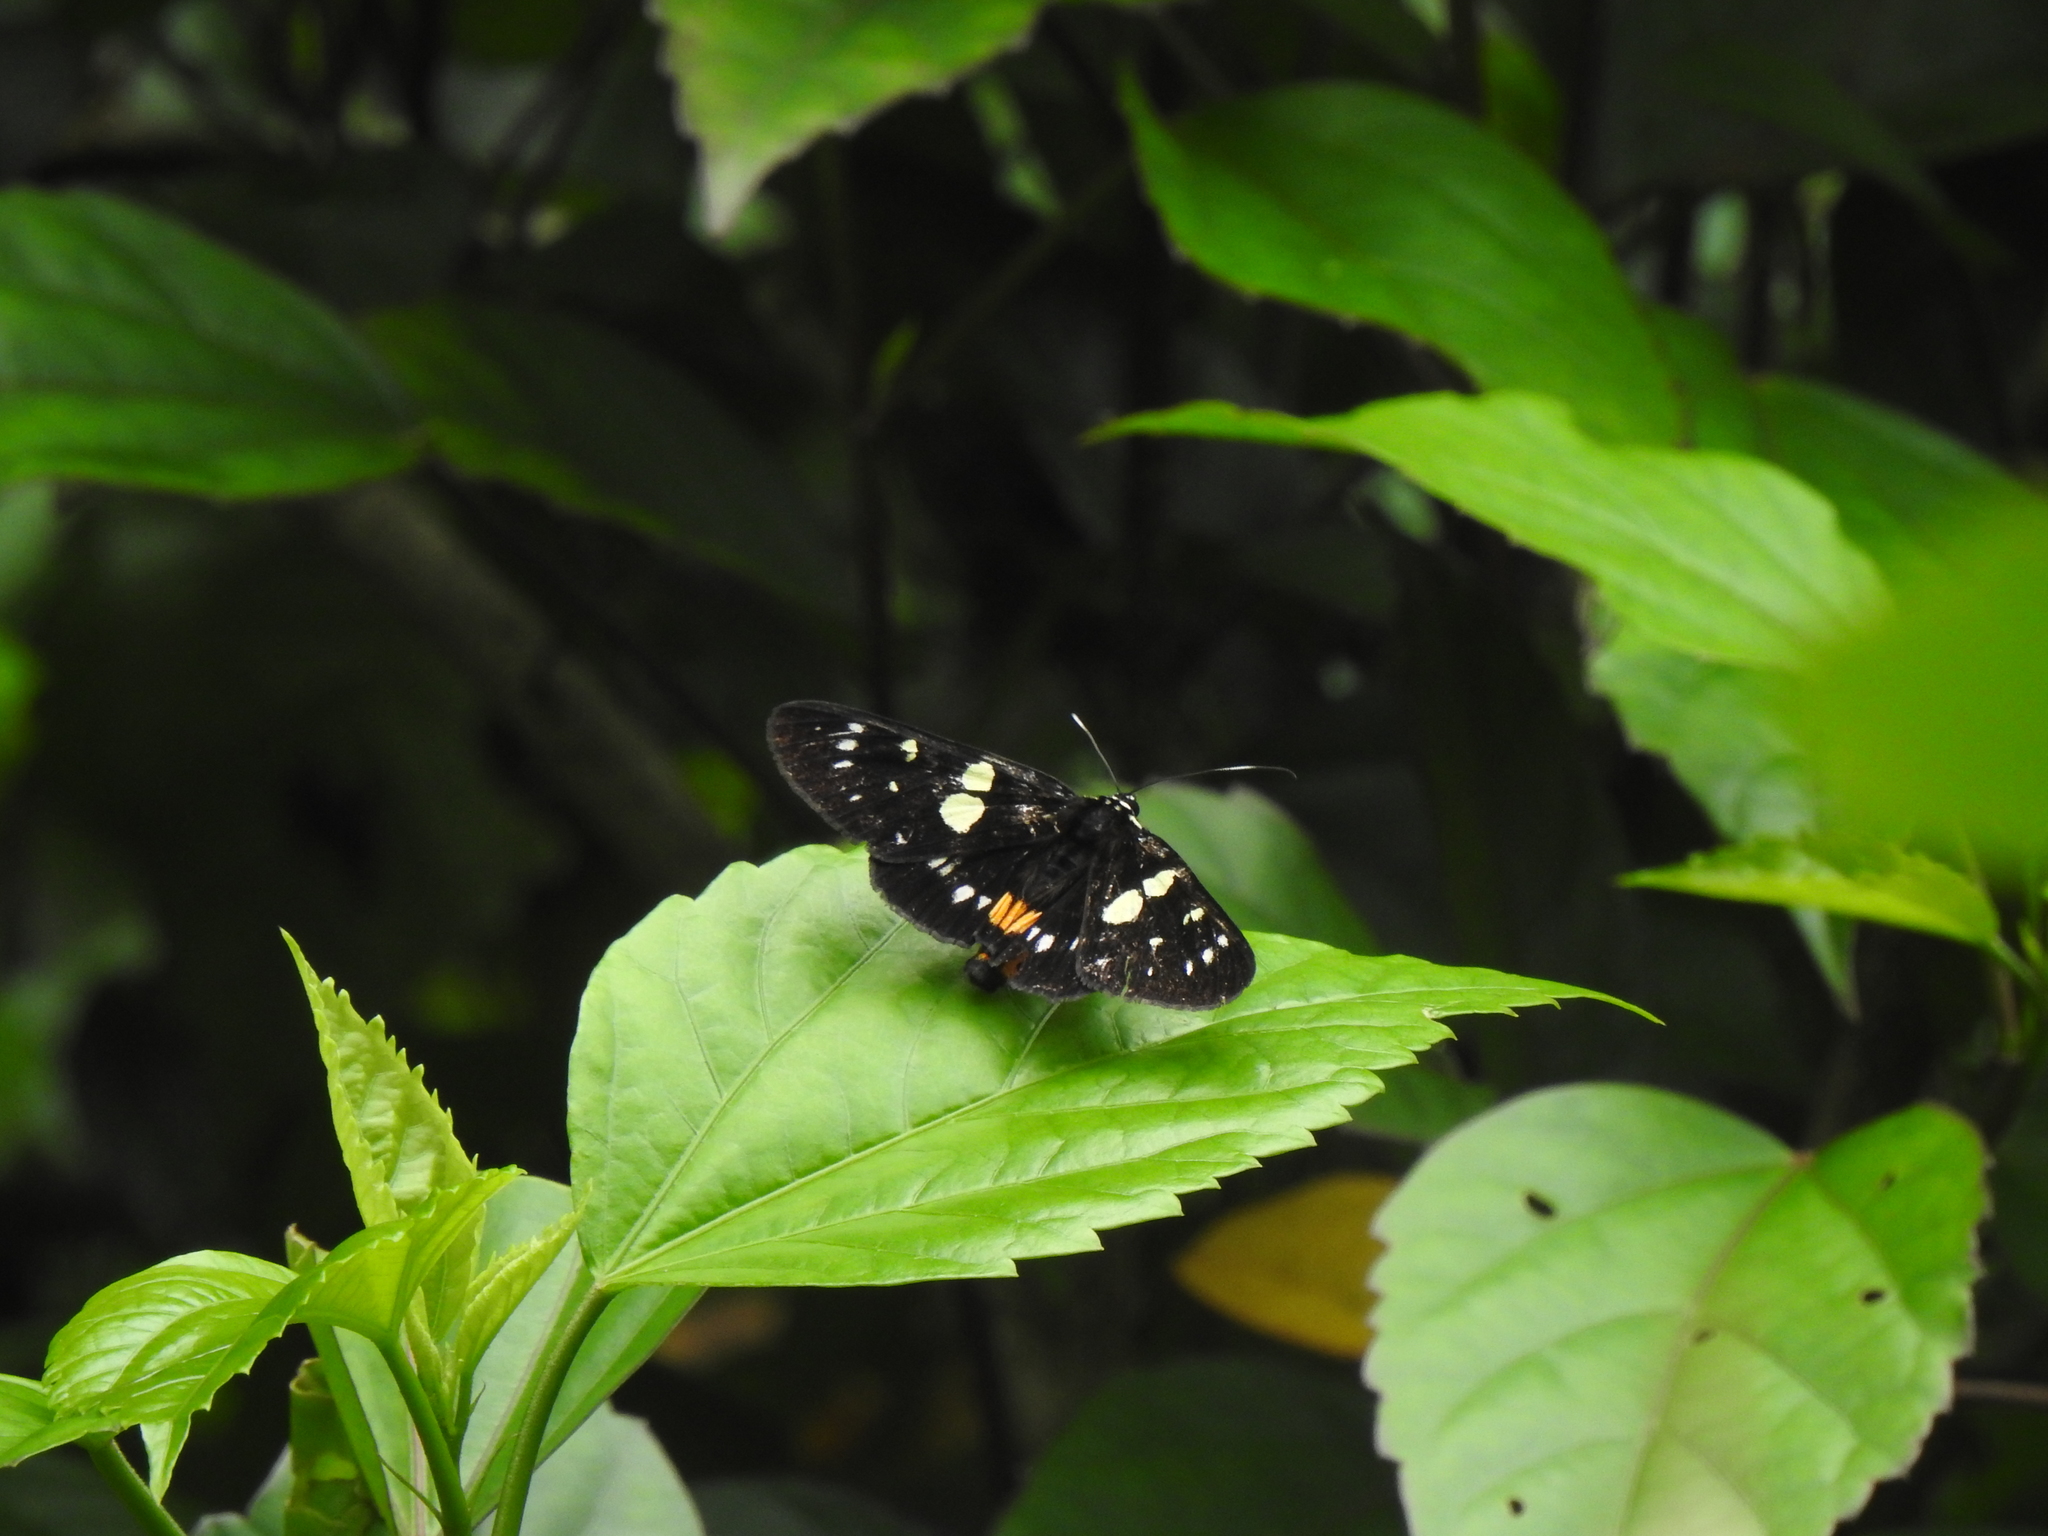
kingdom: Animalia
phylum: Arthropoda
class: Insecta
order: Lepidoptera
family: Noctuidae
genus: Episteme
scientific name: Episteme adulatrix
